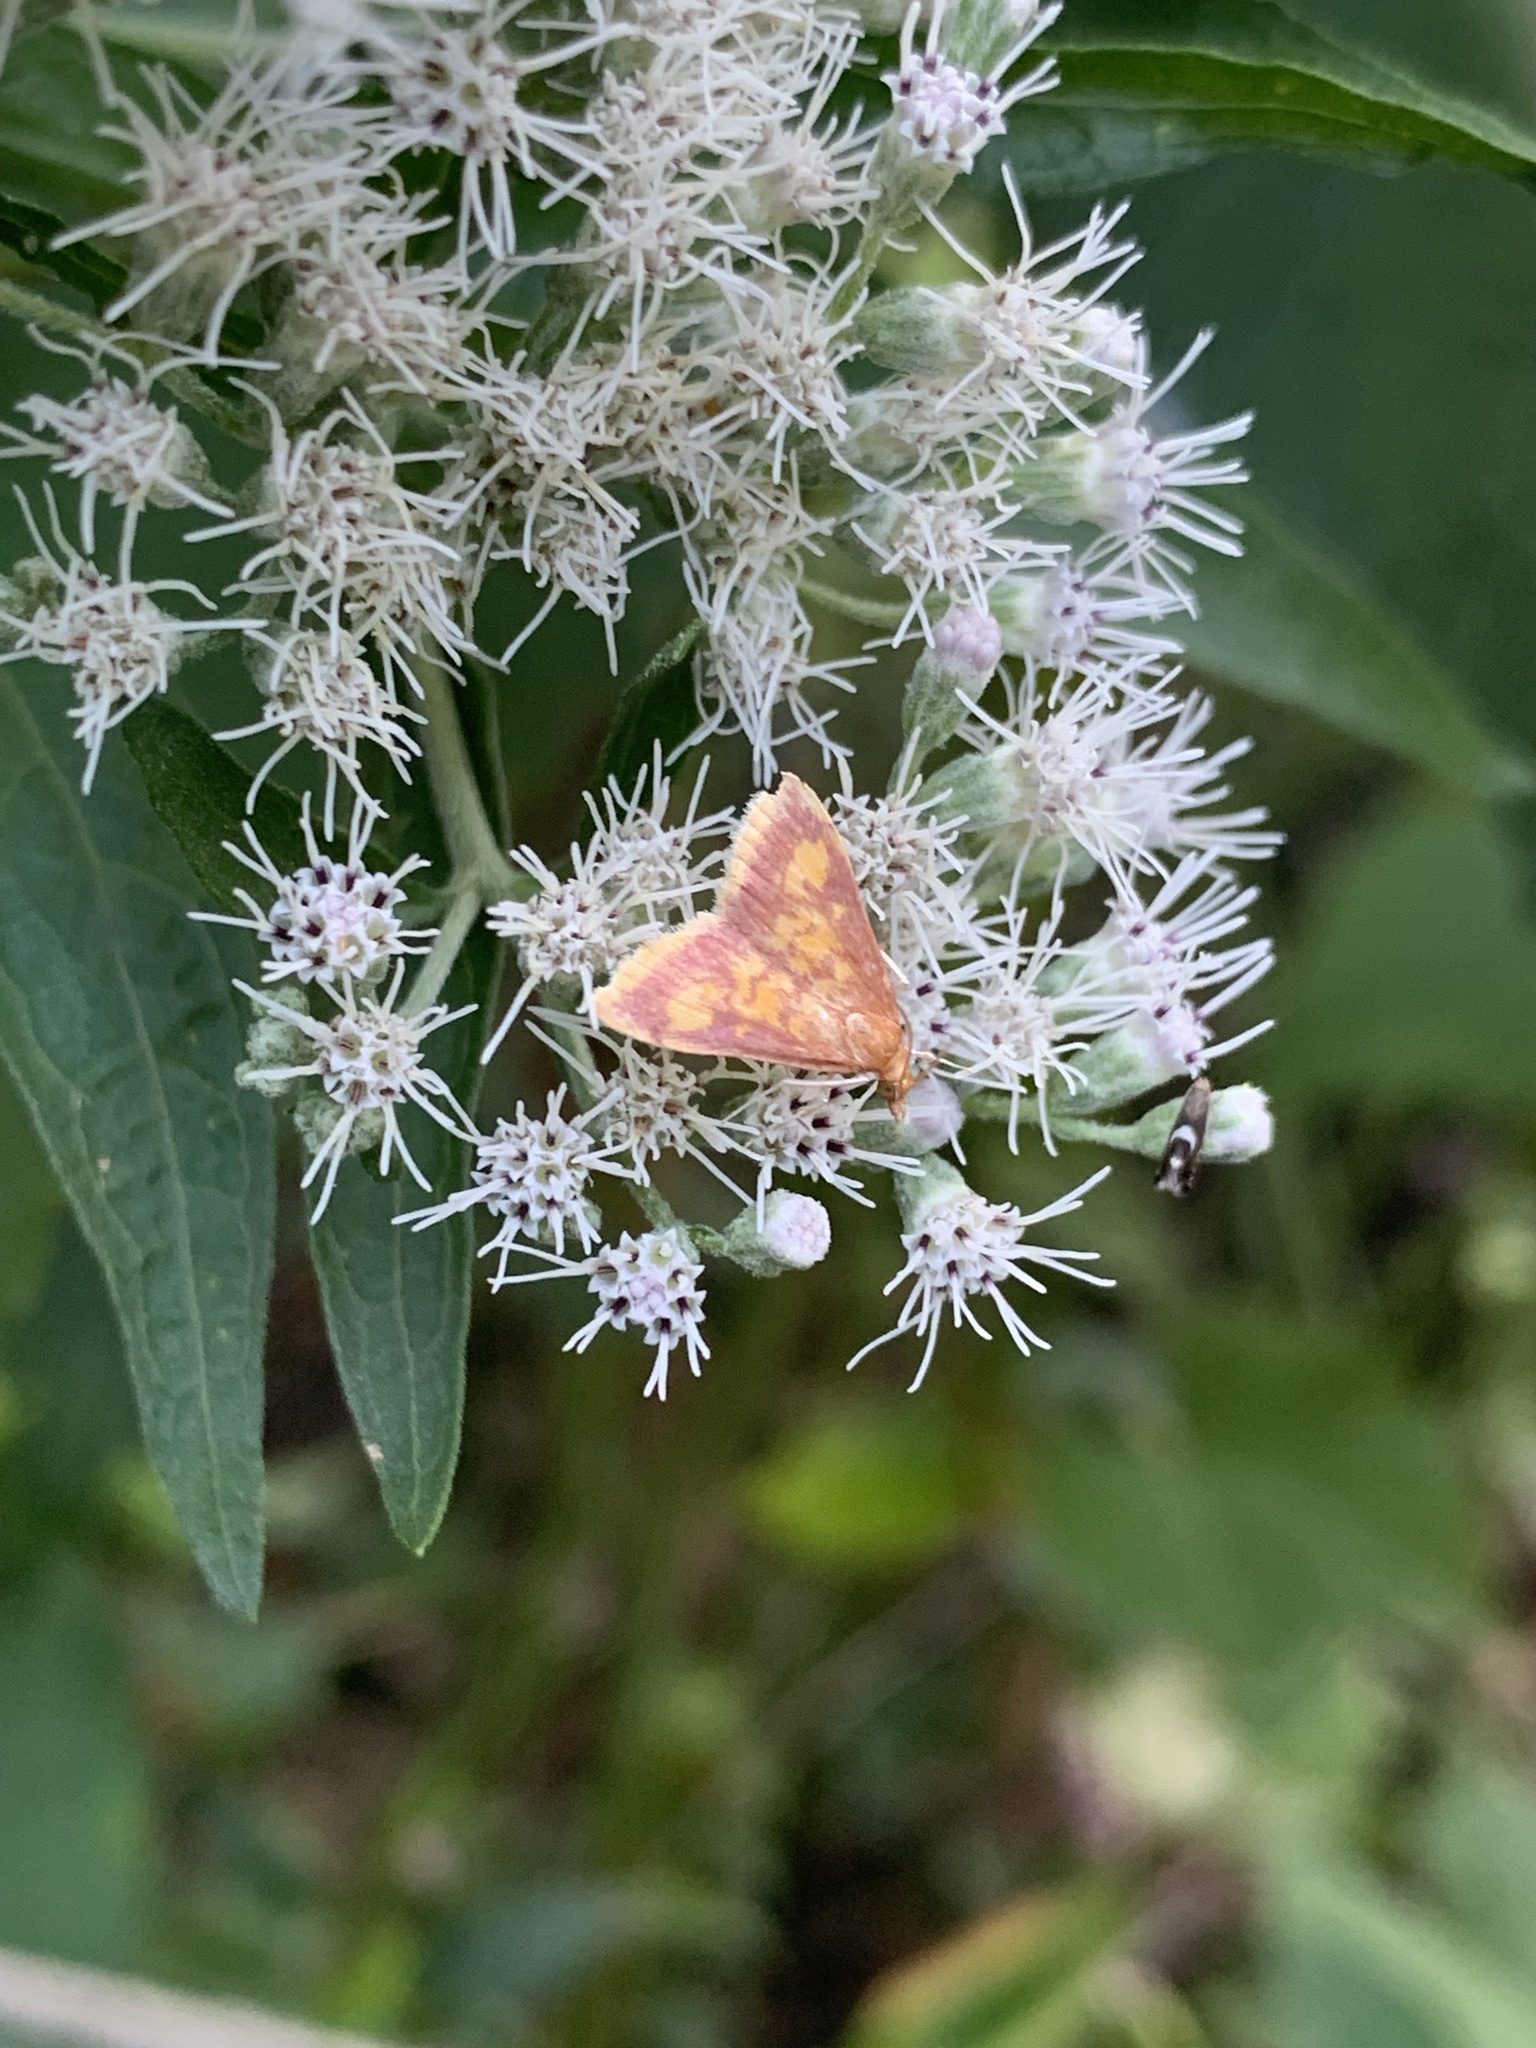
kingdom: Animalia
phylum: Arthropoda
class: Insecta
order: Lepidoptera
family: Crambidae
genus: Pyrausta
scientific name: Pyrausta acrionalis
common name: Mint-loving pyrausta moth
